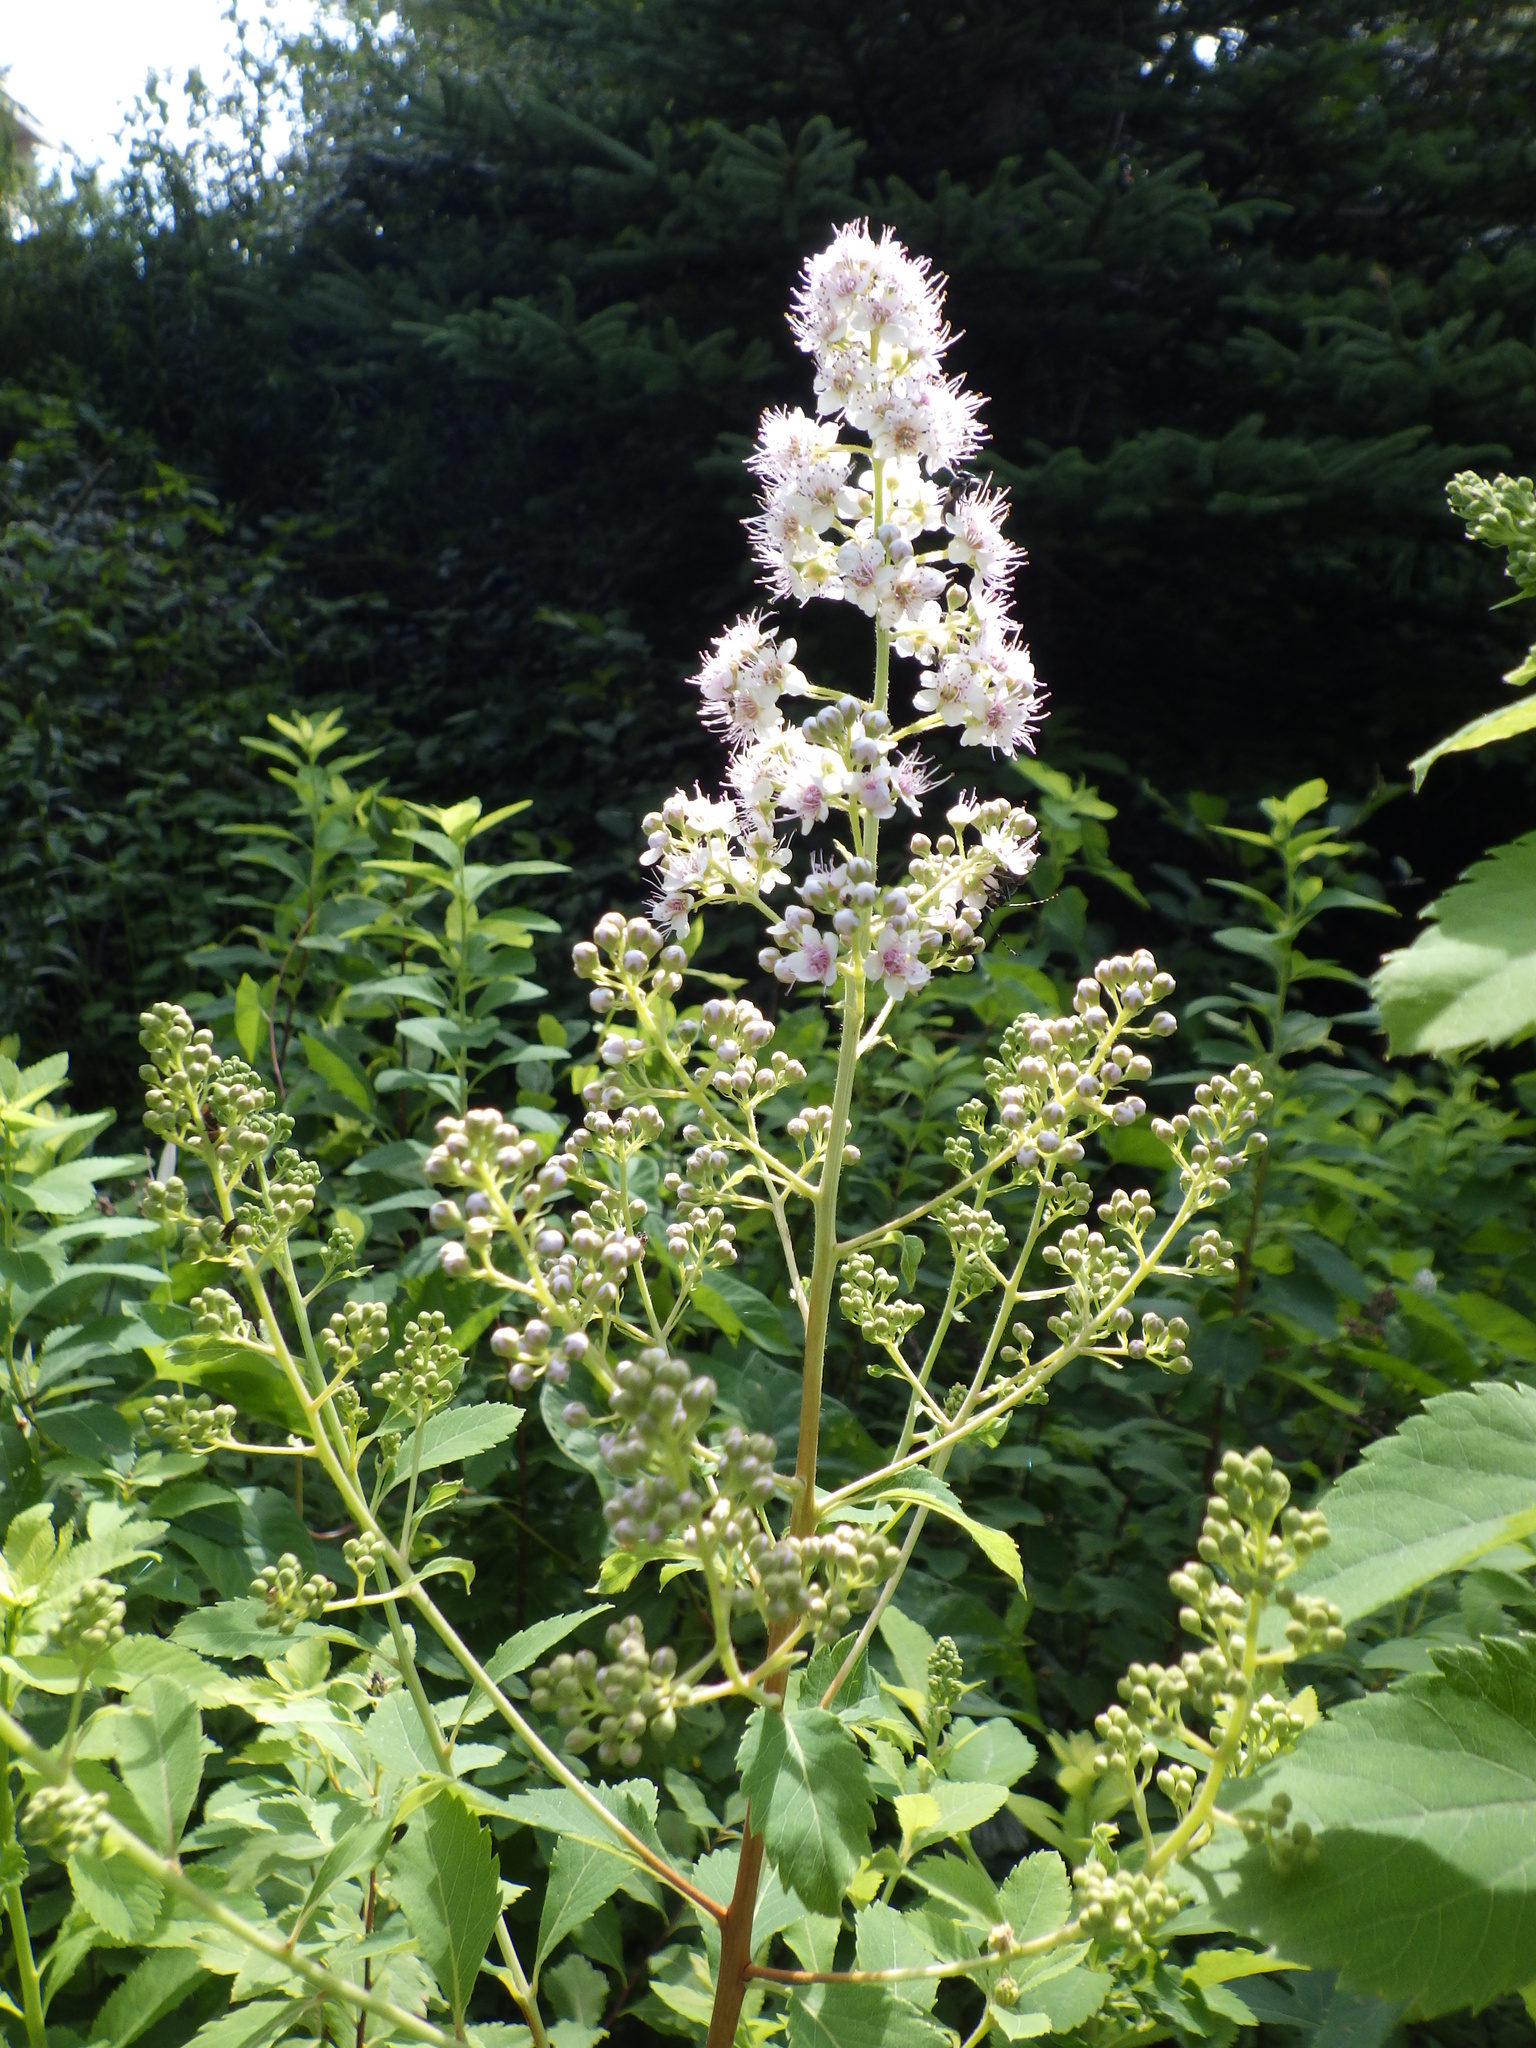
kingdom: Plantae
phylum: Tracheophyta
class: Magnoliopsida
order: Rosales
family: Rosaceae
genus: Spiraea
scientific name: Spiraea alba
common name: Pale bridewort
